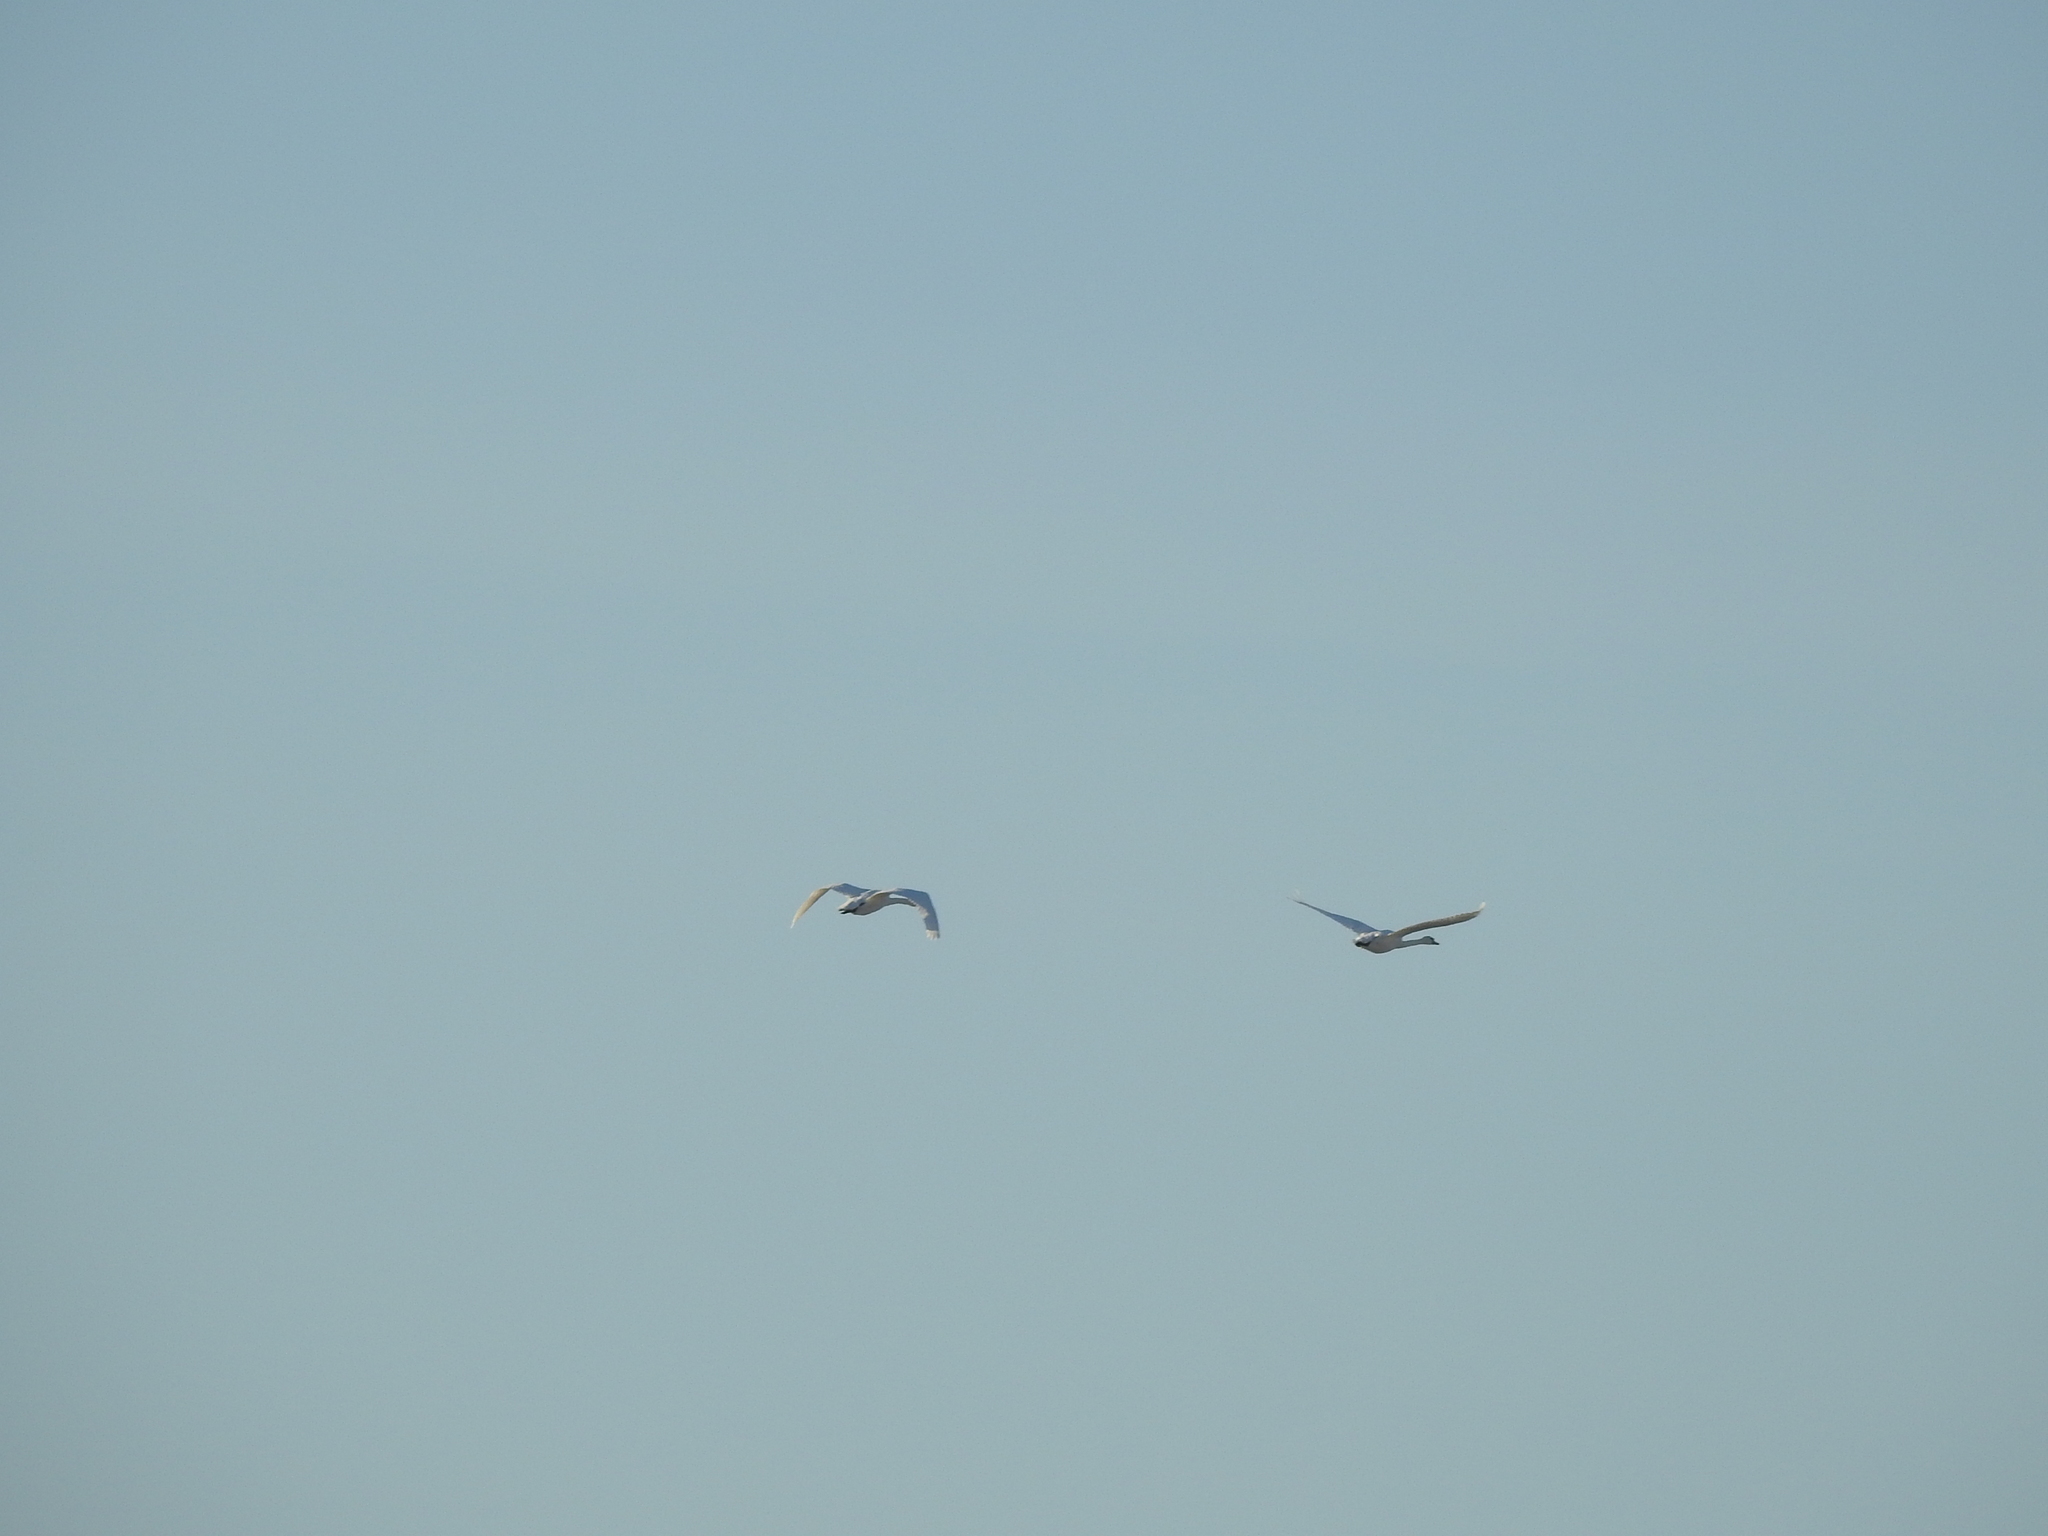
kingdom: Animalia
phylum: Chordata
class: Aves
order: Anseriformes
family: Anatidae
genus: Cygnus
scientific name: Cygnus olor
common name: Mute swan
